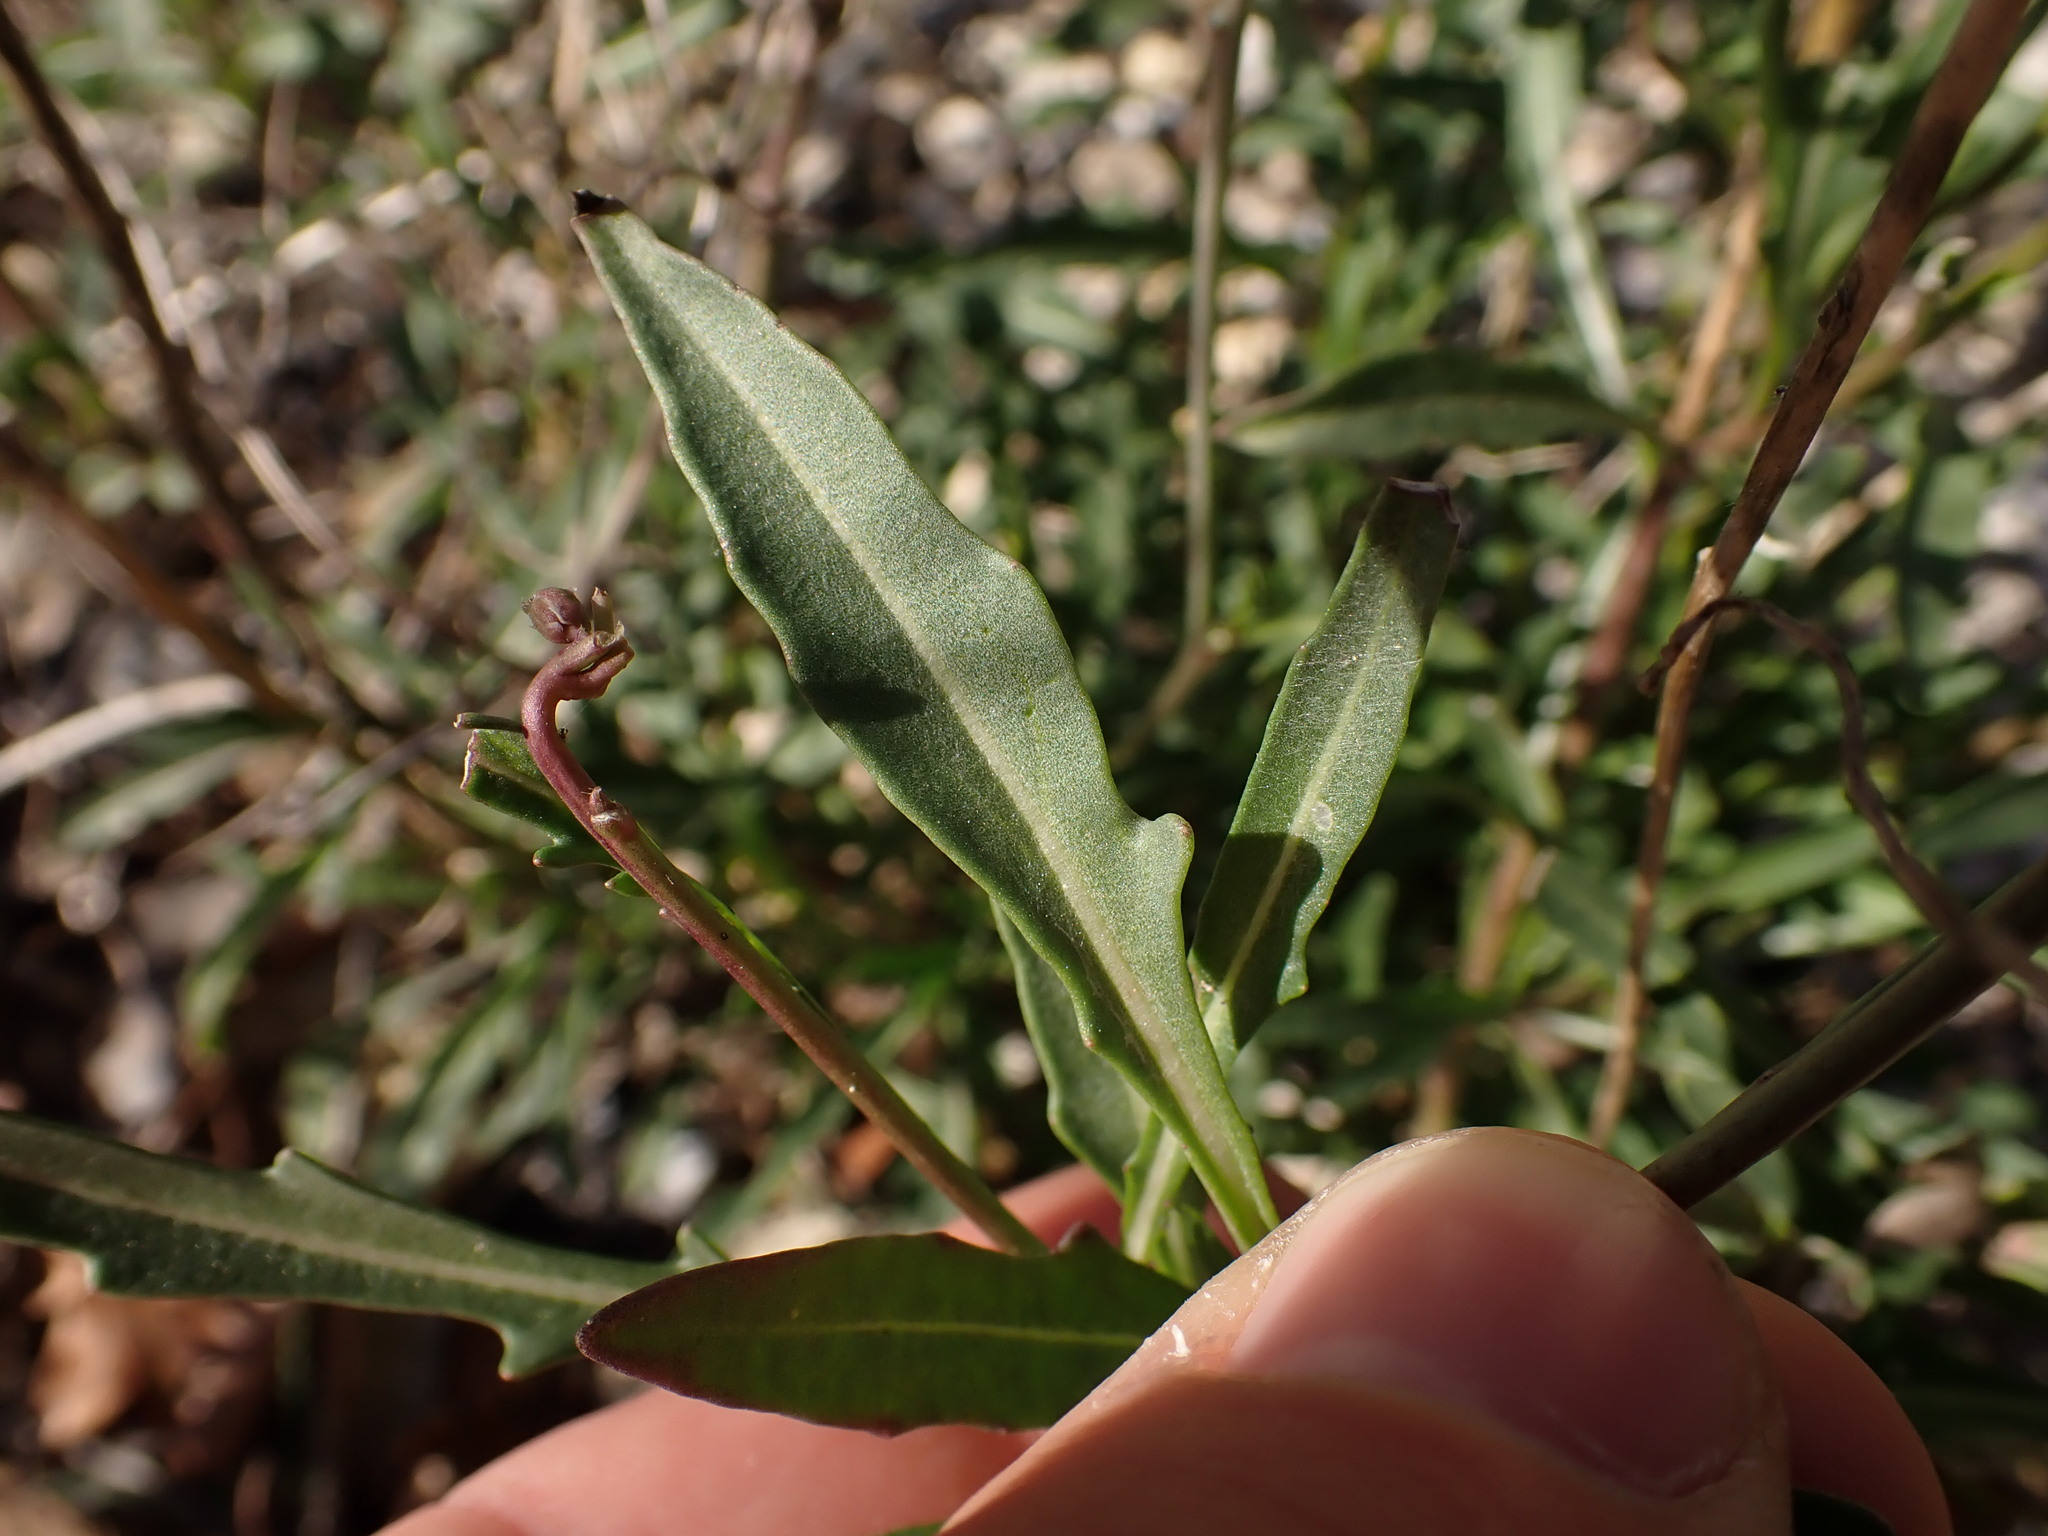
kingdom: Plantae
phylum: Tracheophyta
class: Magnoliopsida
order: Brassicales
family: Brassicaceae
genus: Diplotaxis
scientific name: Diplotaxis tenuifolia
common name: Perennial wall-rocket
